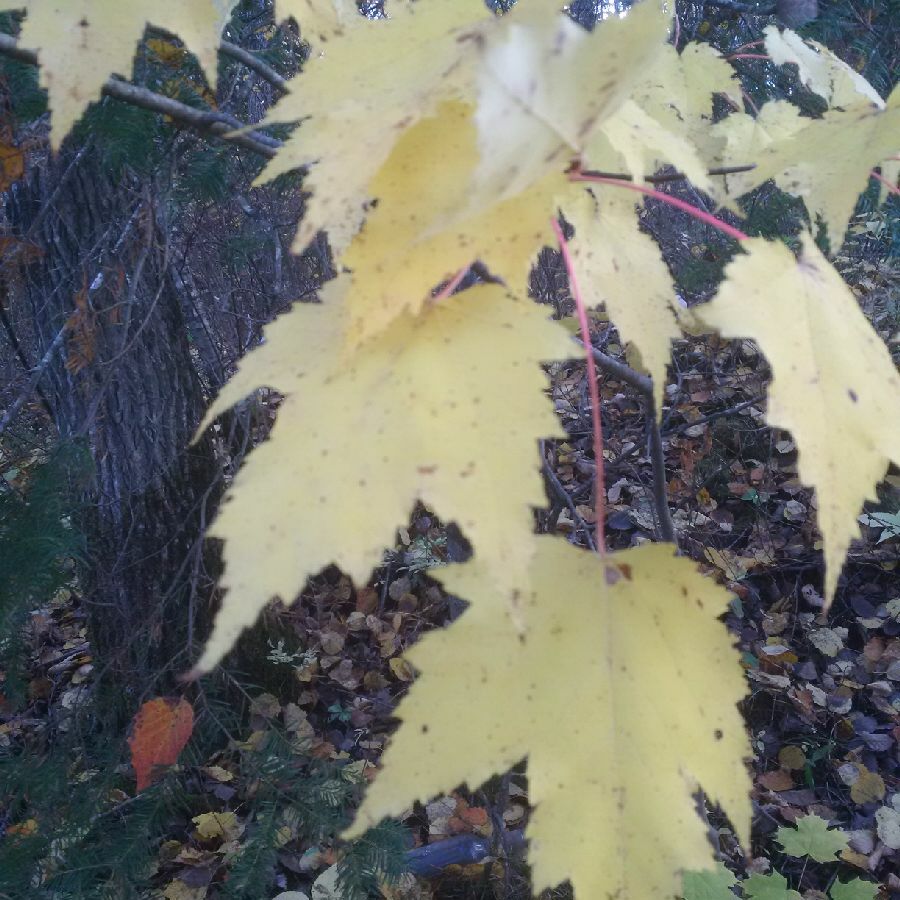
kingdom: Plantae
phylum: Tracheophyta
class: Magnoliopsida
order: Sapindales
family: Sapindaceae
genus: Acer
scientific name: Acer rubrum
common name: Red maple
